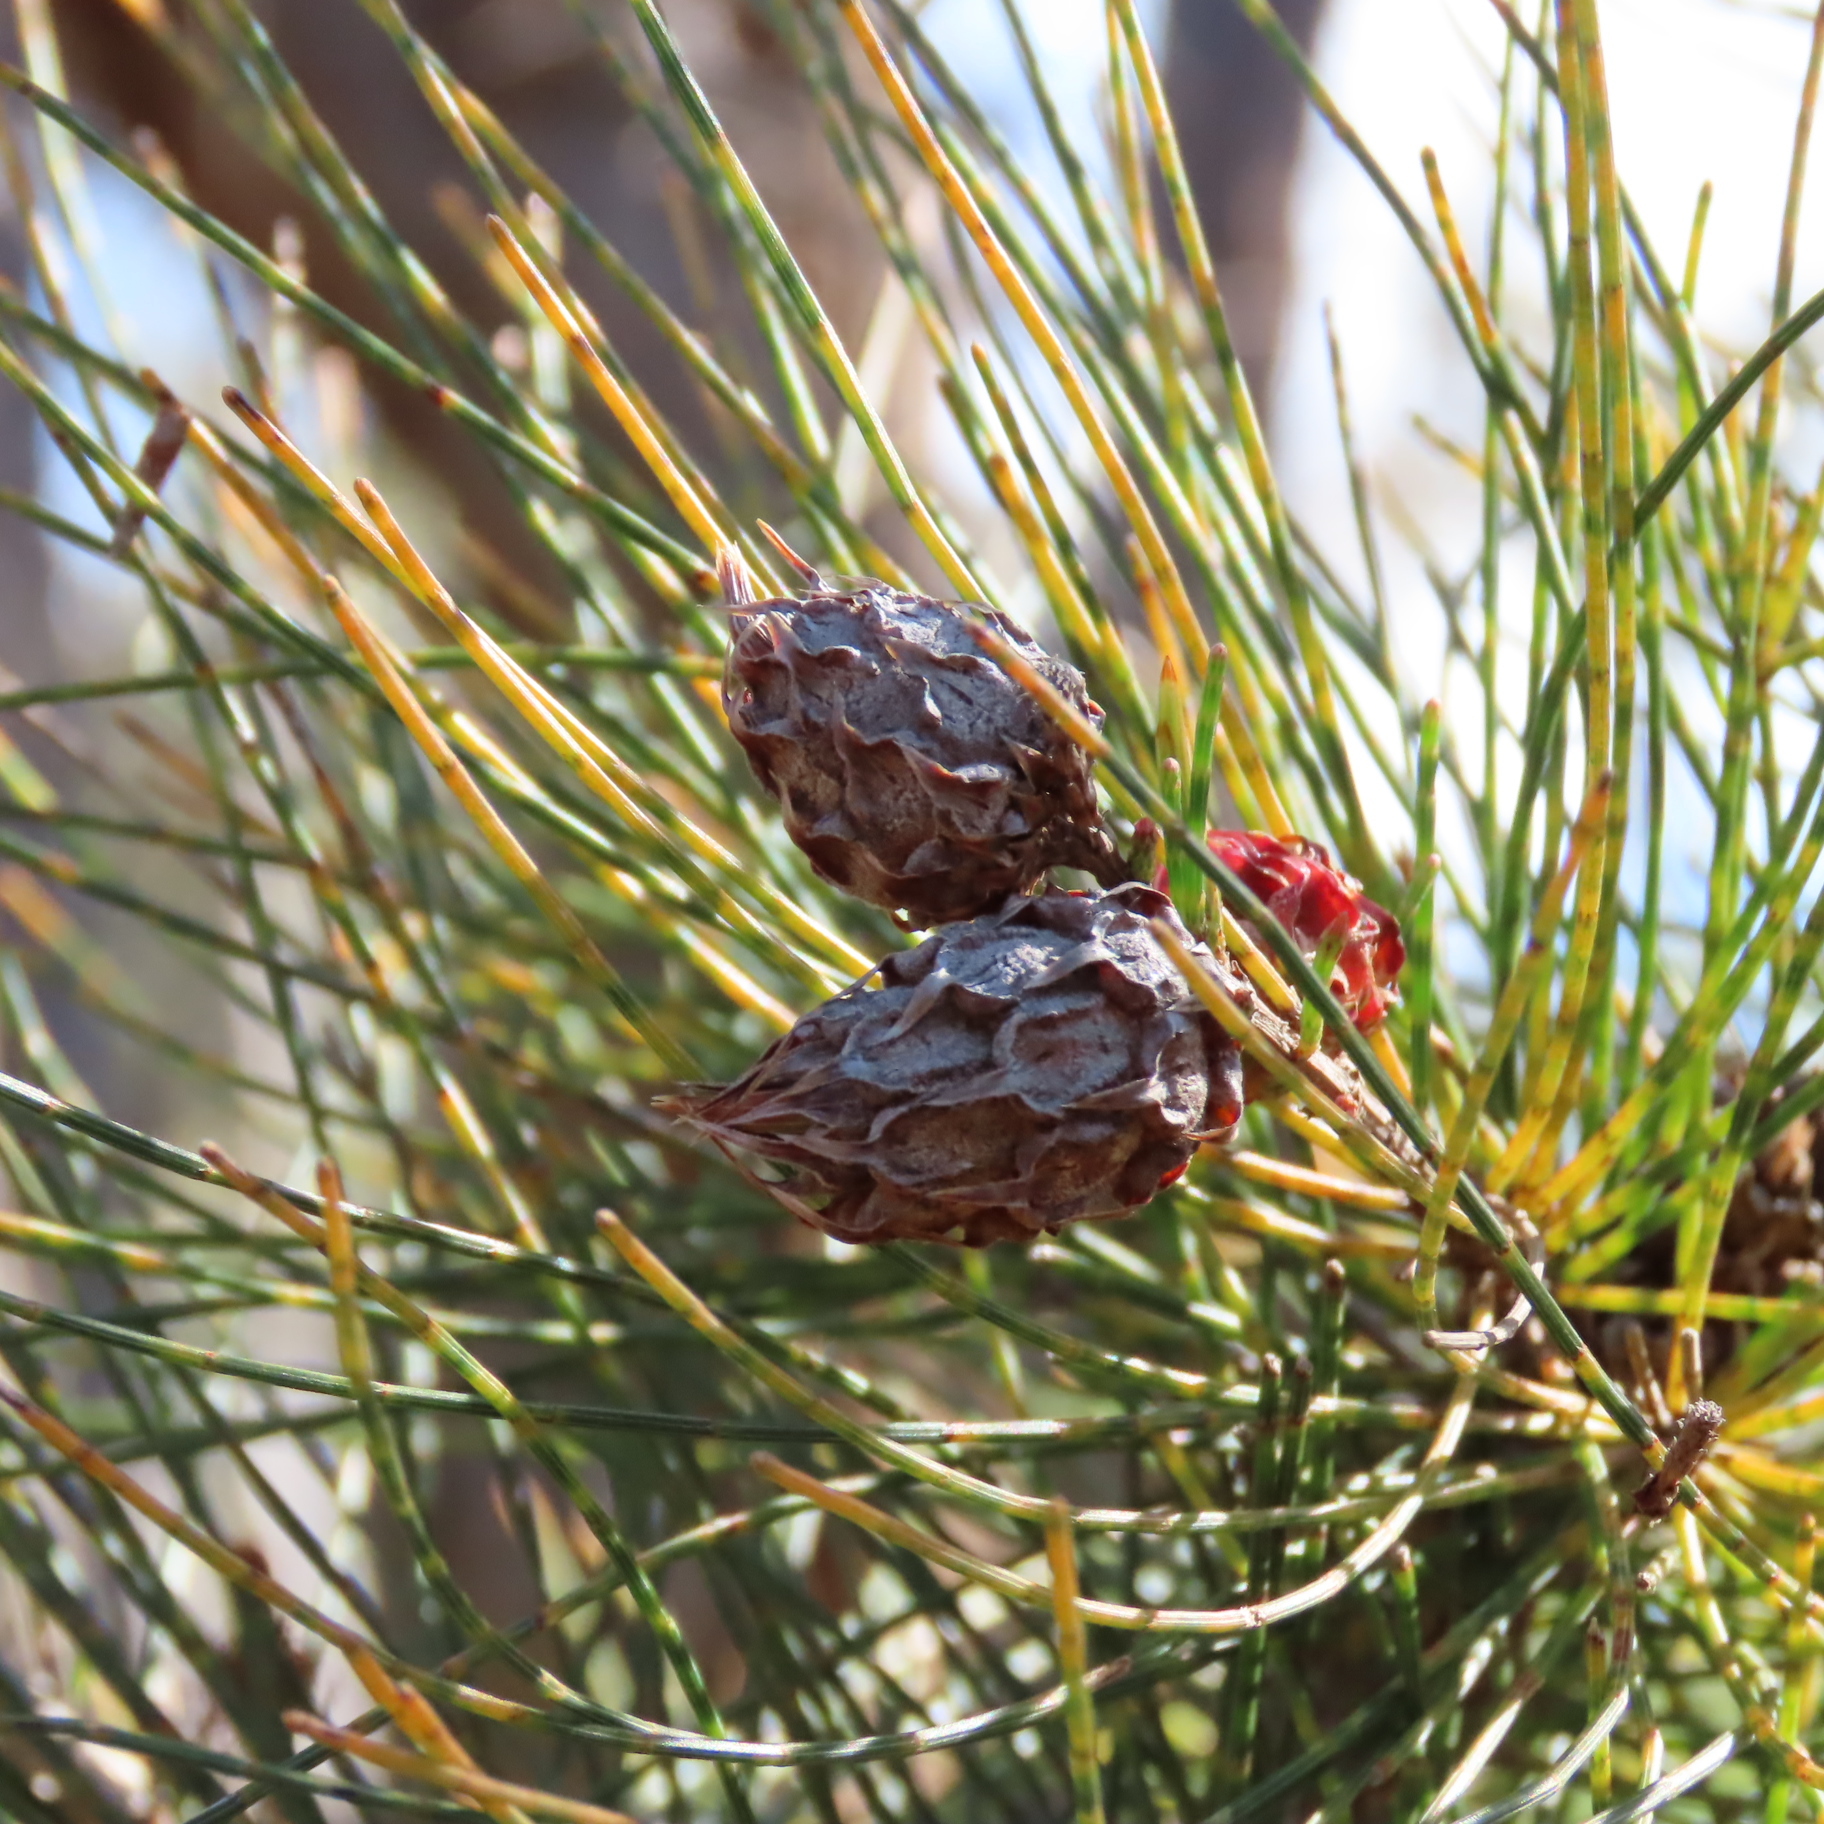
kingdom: Animalia
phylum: Arthropoda
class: Insecta
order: Hemiptera
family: Eriococcidae
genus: Cylindrococcus
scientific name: Cylindrococcus spiniferus
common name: Casuarina gall
